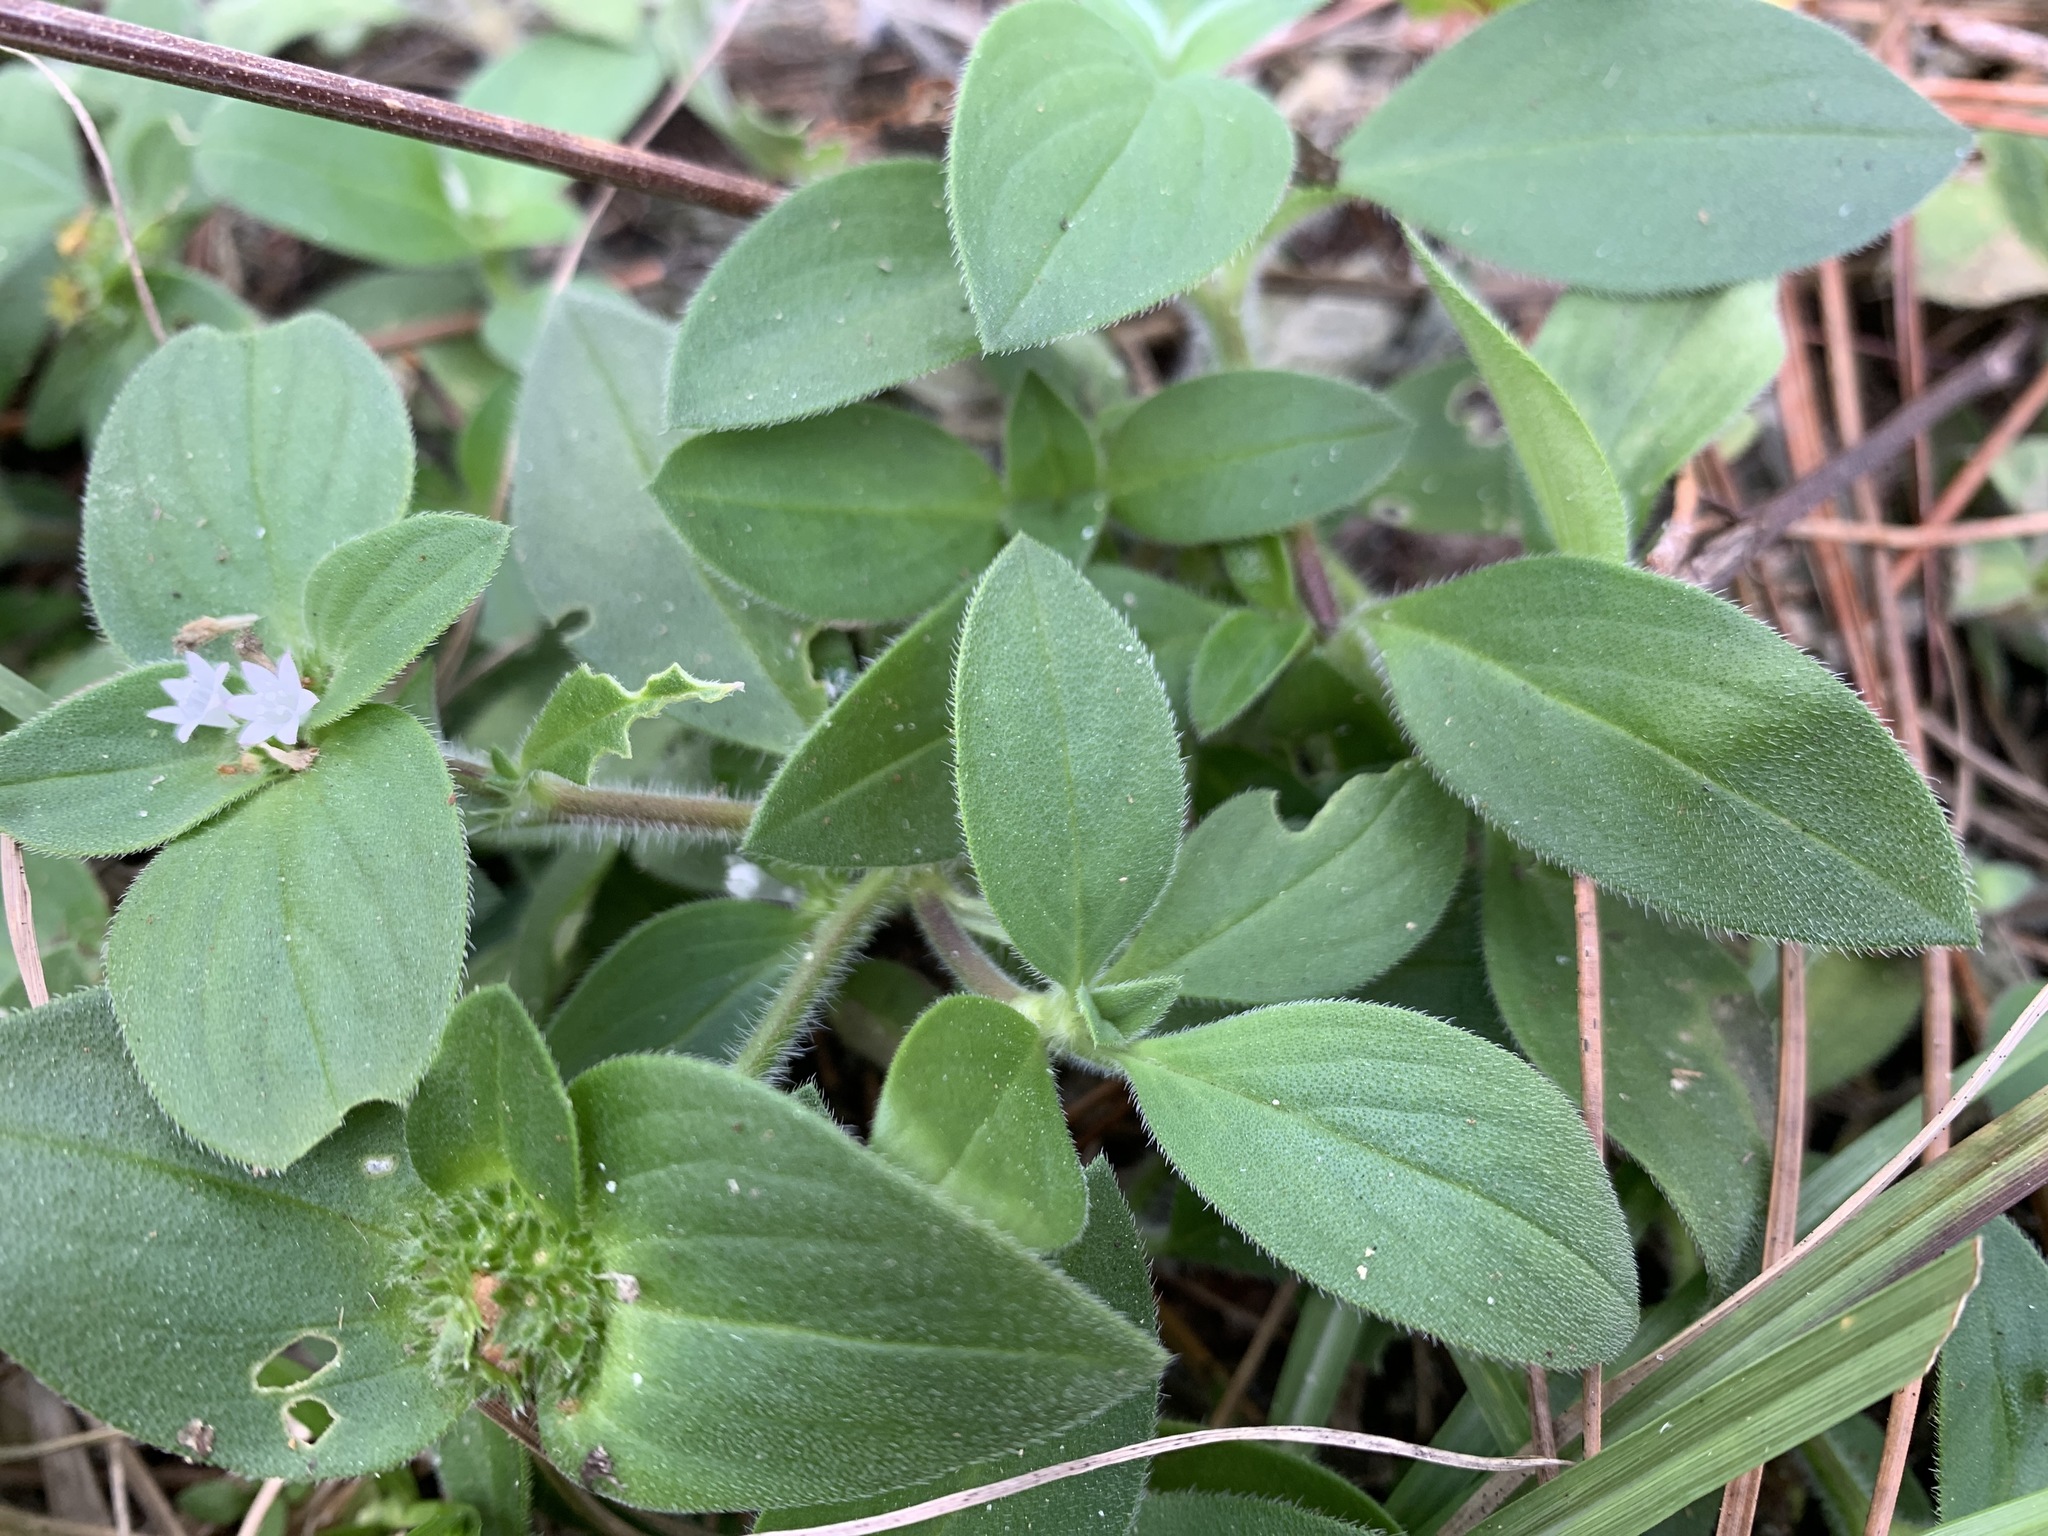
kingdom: Plantae
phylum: Tracheophyta
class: Magnoliopsida
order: Gentianales
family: Rubiaceae
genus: Richardia
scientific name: Richardia brasiliensis
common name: Tropical mexican clover
